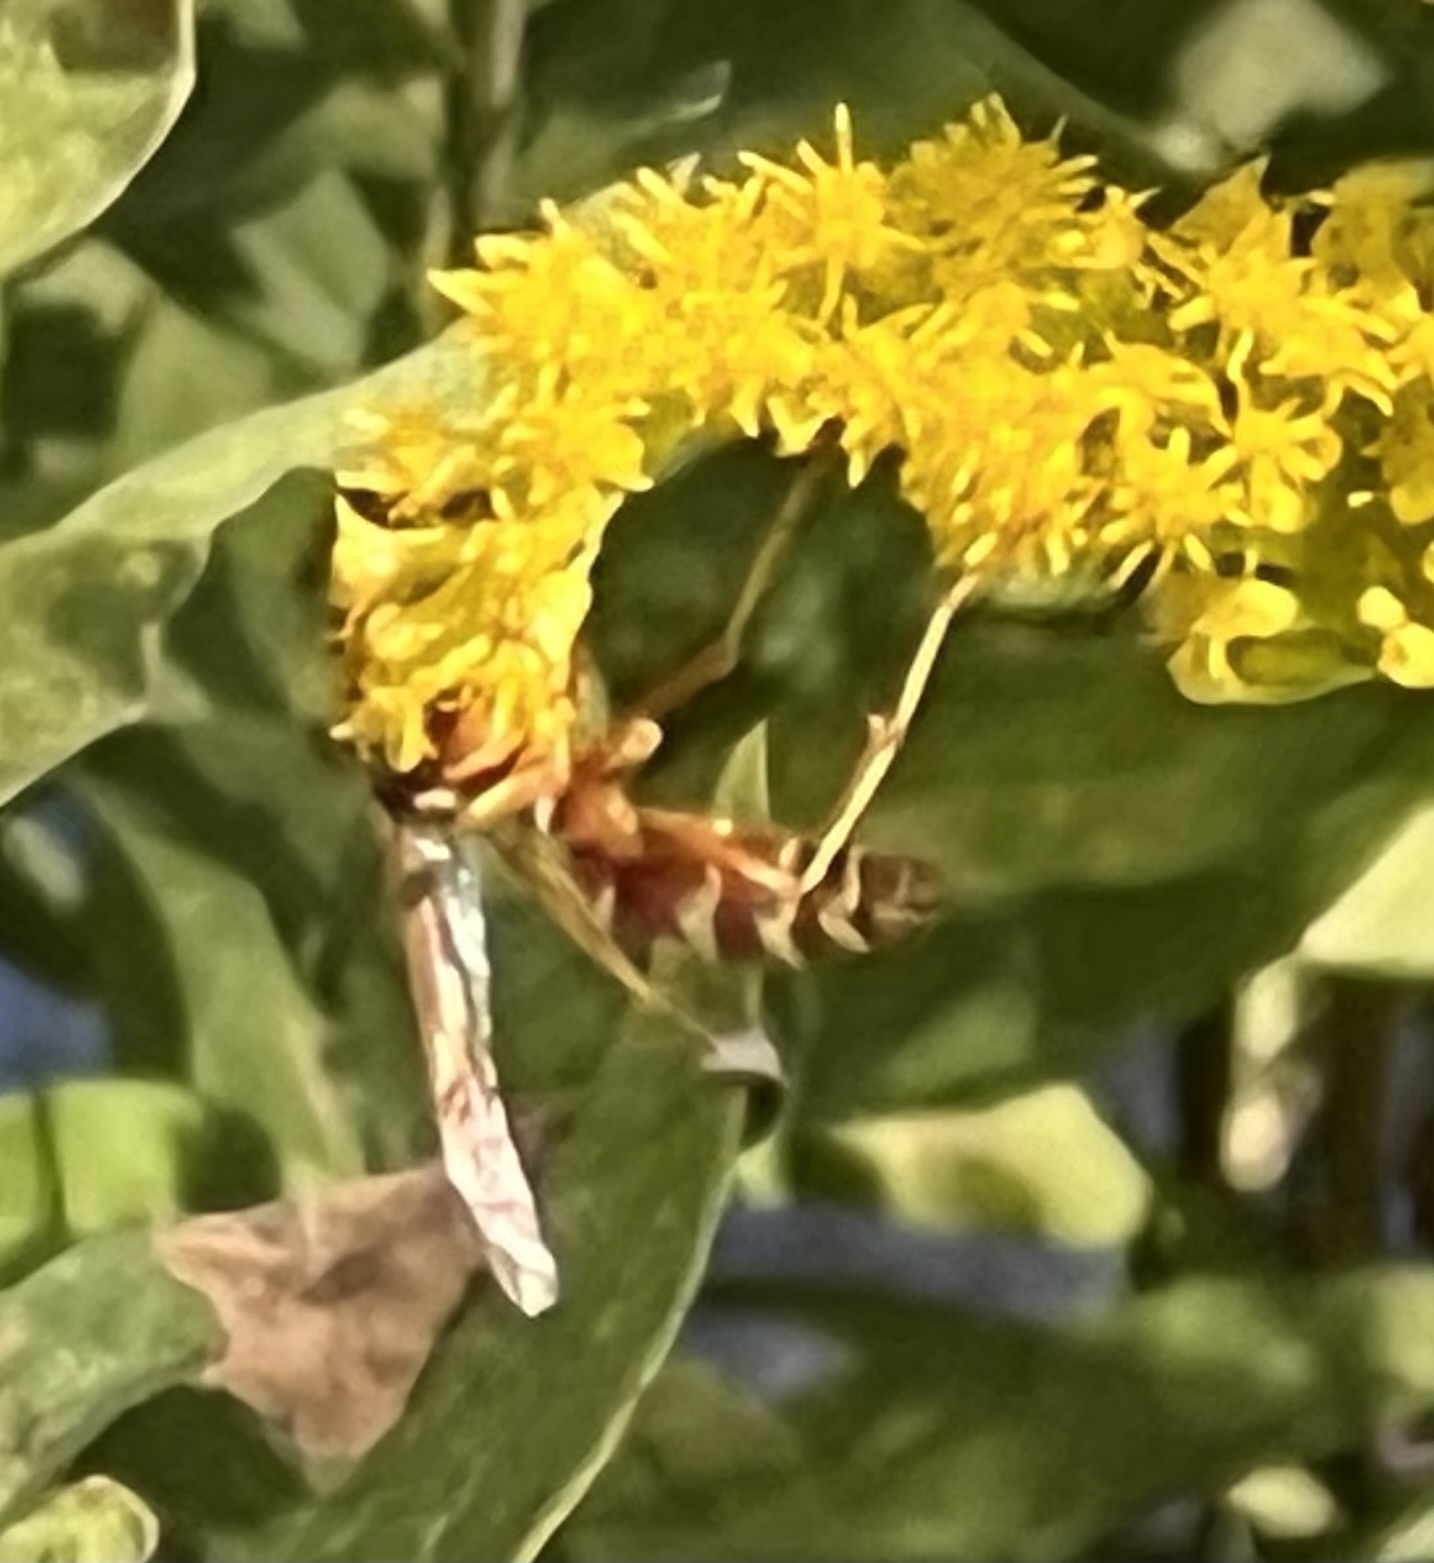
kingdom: Animalia
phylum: Arthropoda
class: Insecta
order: Hymenoptera
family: Eumenidae
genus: Polistes
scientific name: Polistes bellicosus
